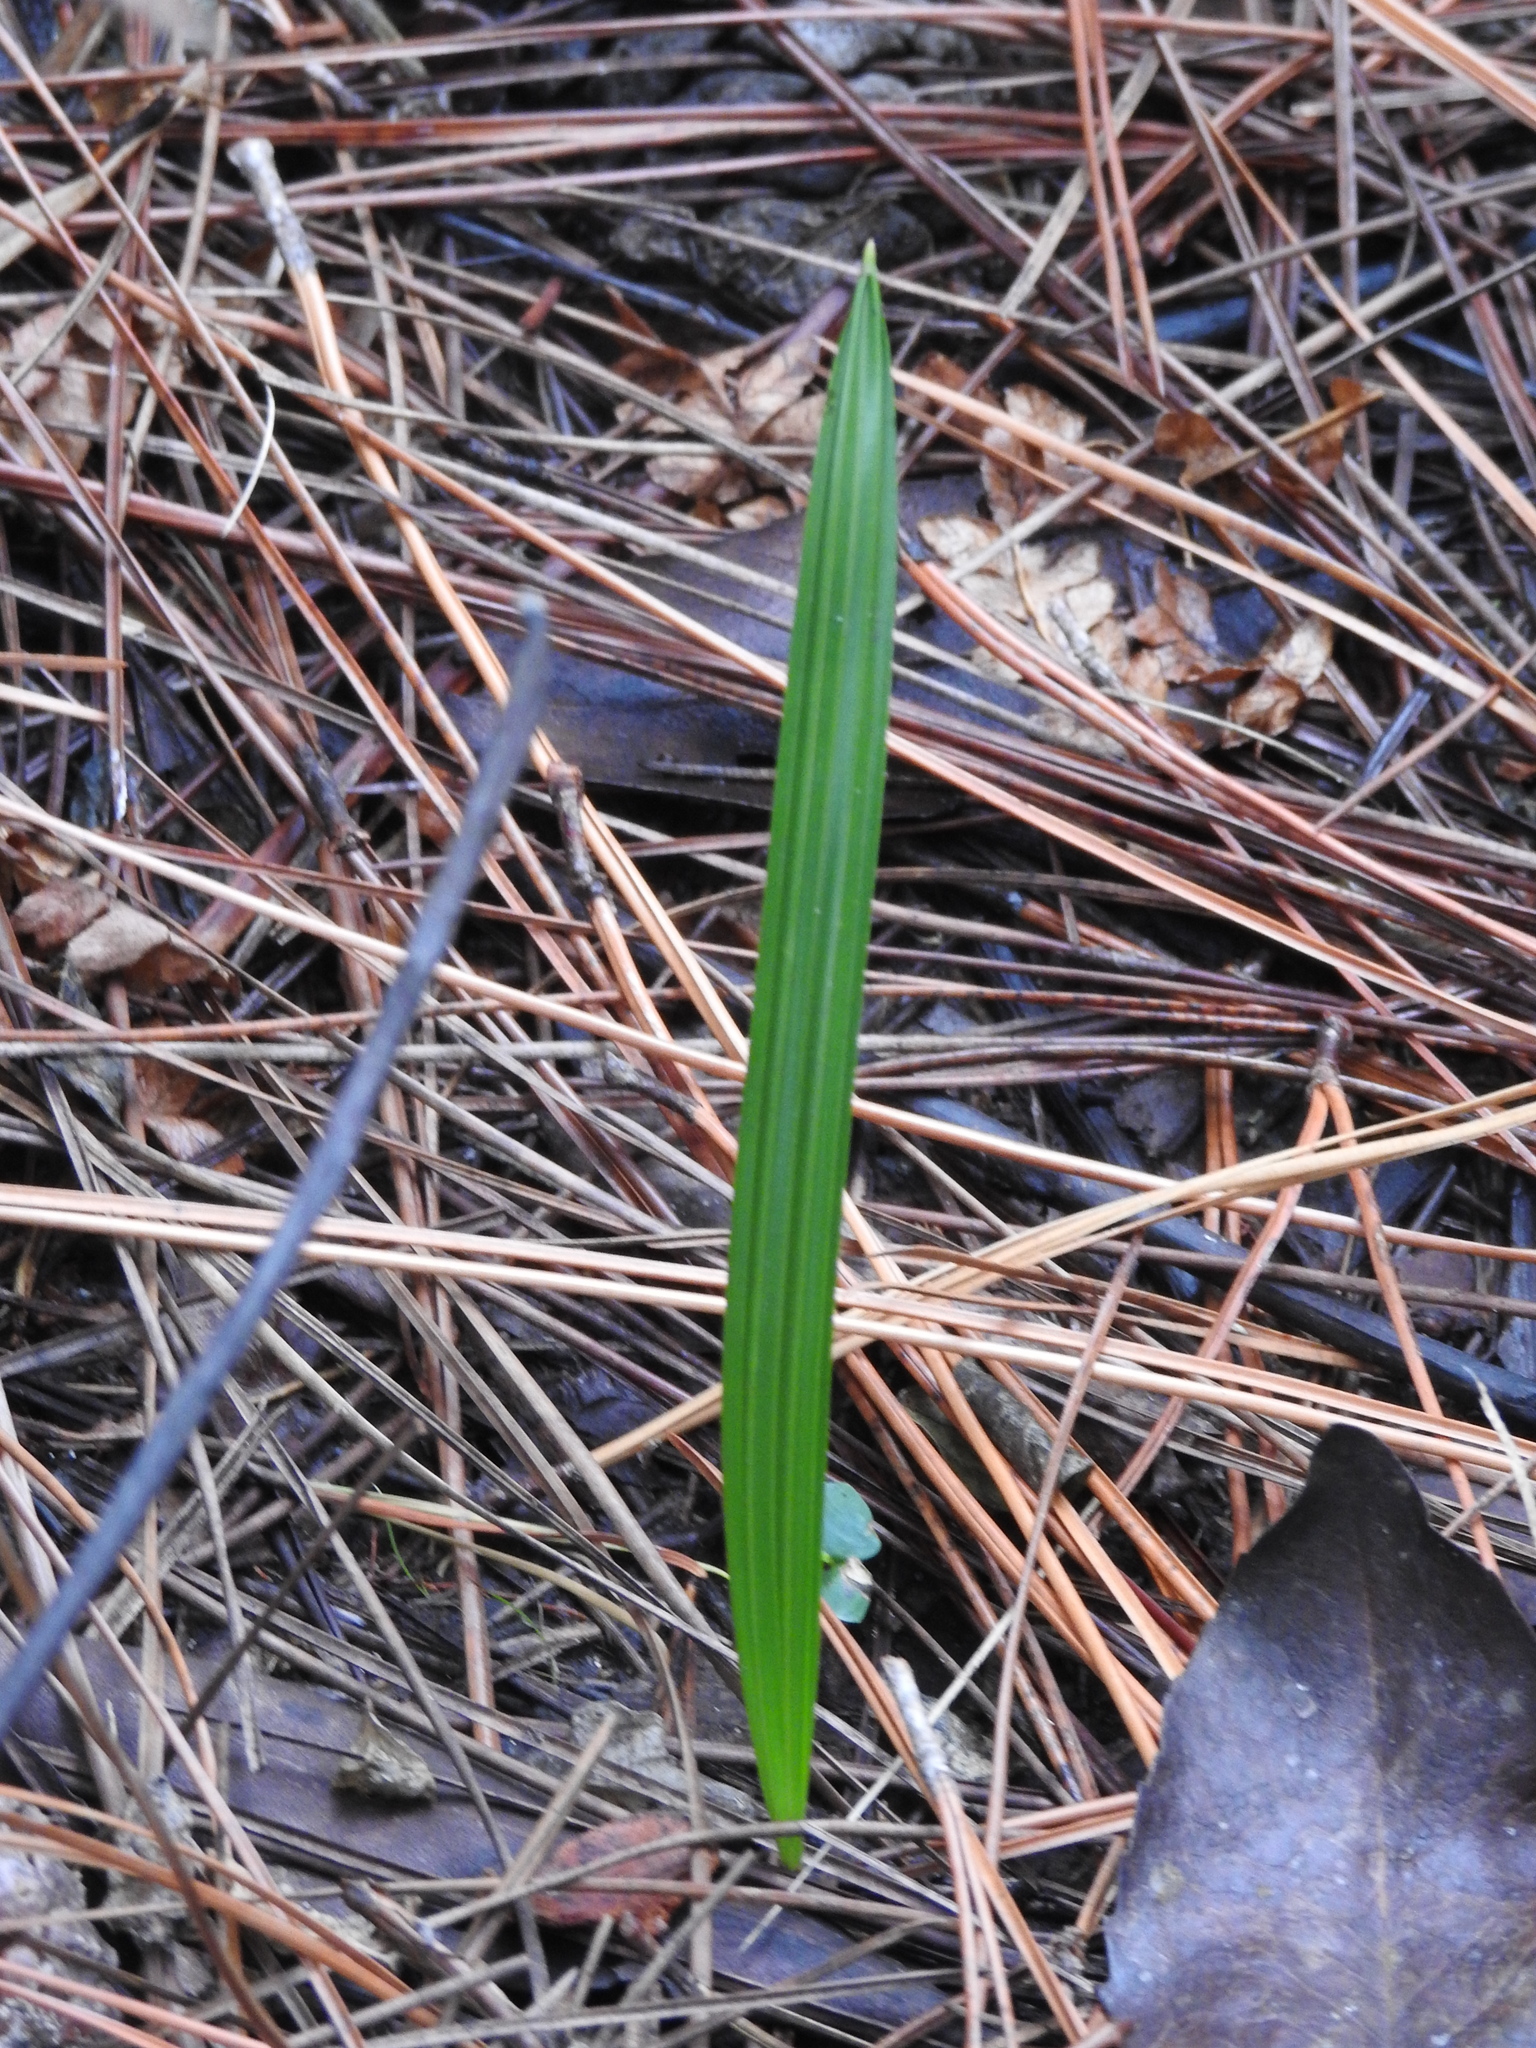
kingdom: Plantae
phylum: Tracheophyta
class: Liliopsida
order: Arecales
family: Arecaceae
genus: Serenoa
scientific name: Serenoa repens
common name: Saw-palmetto
